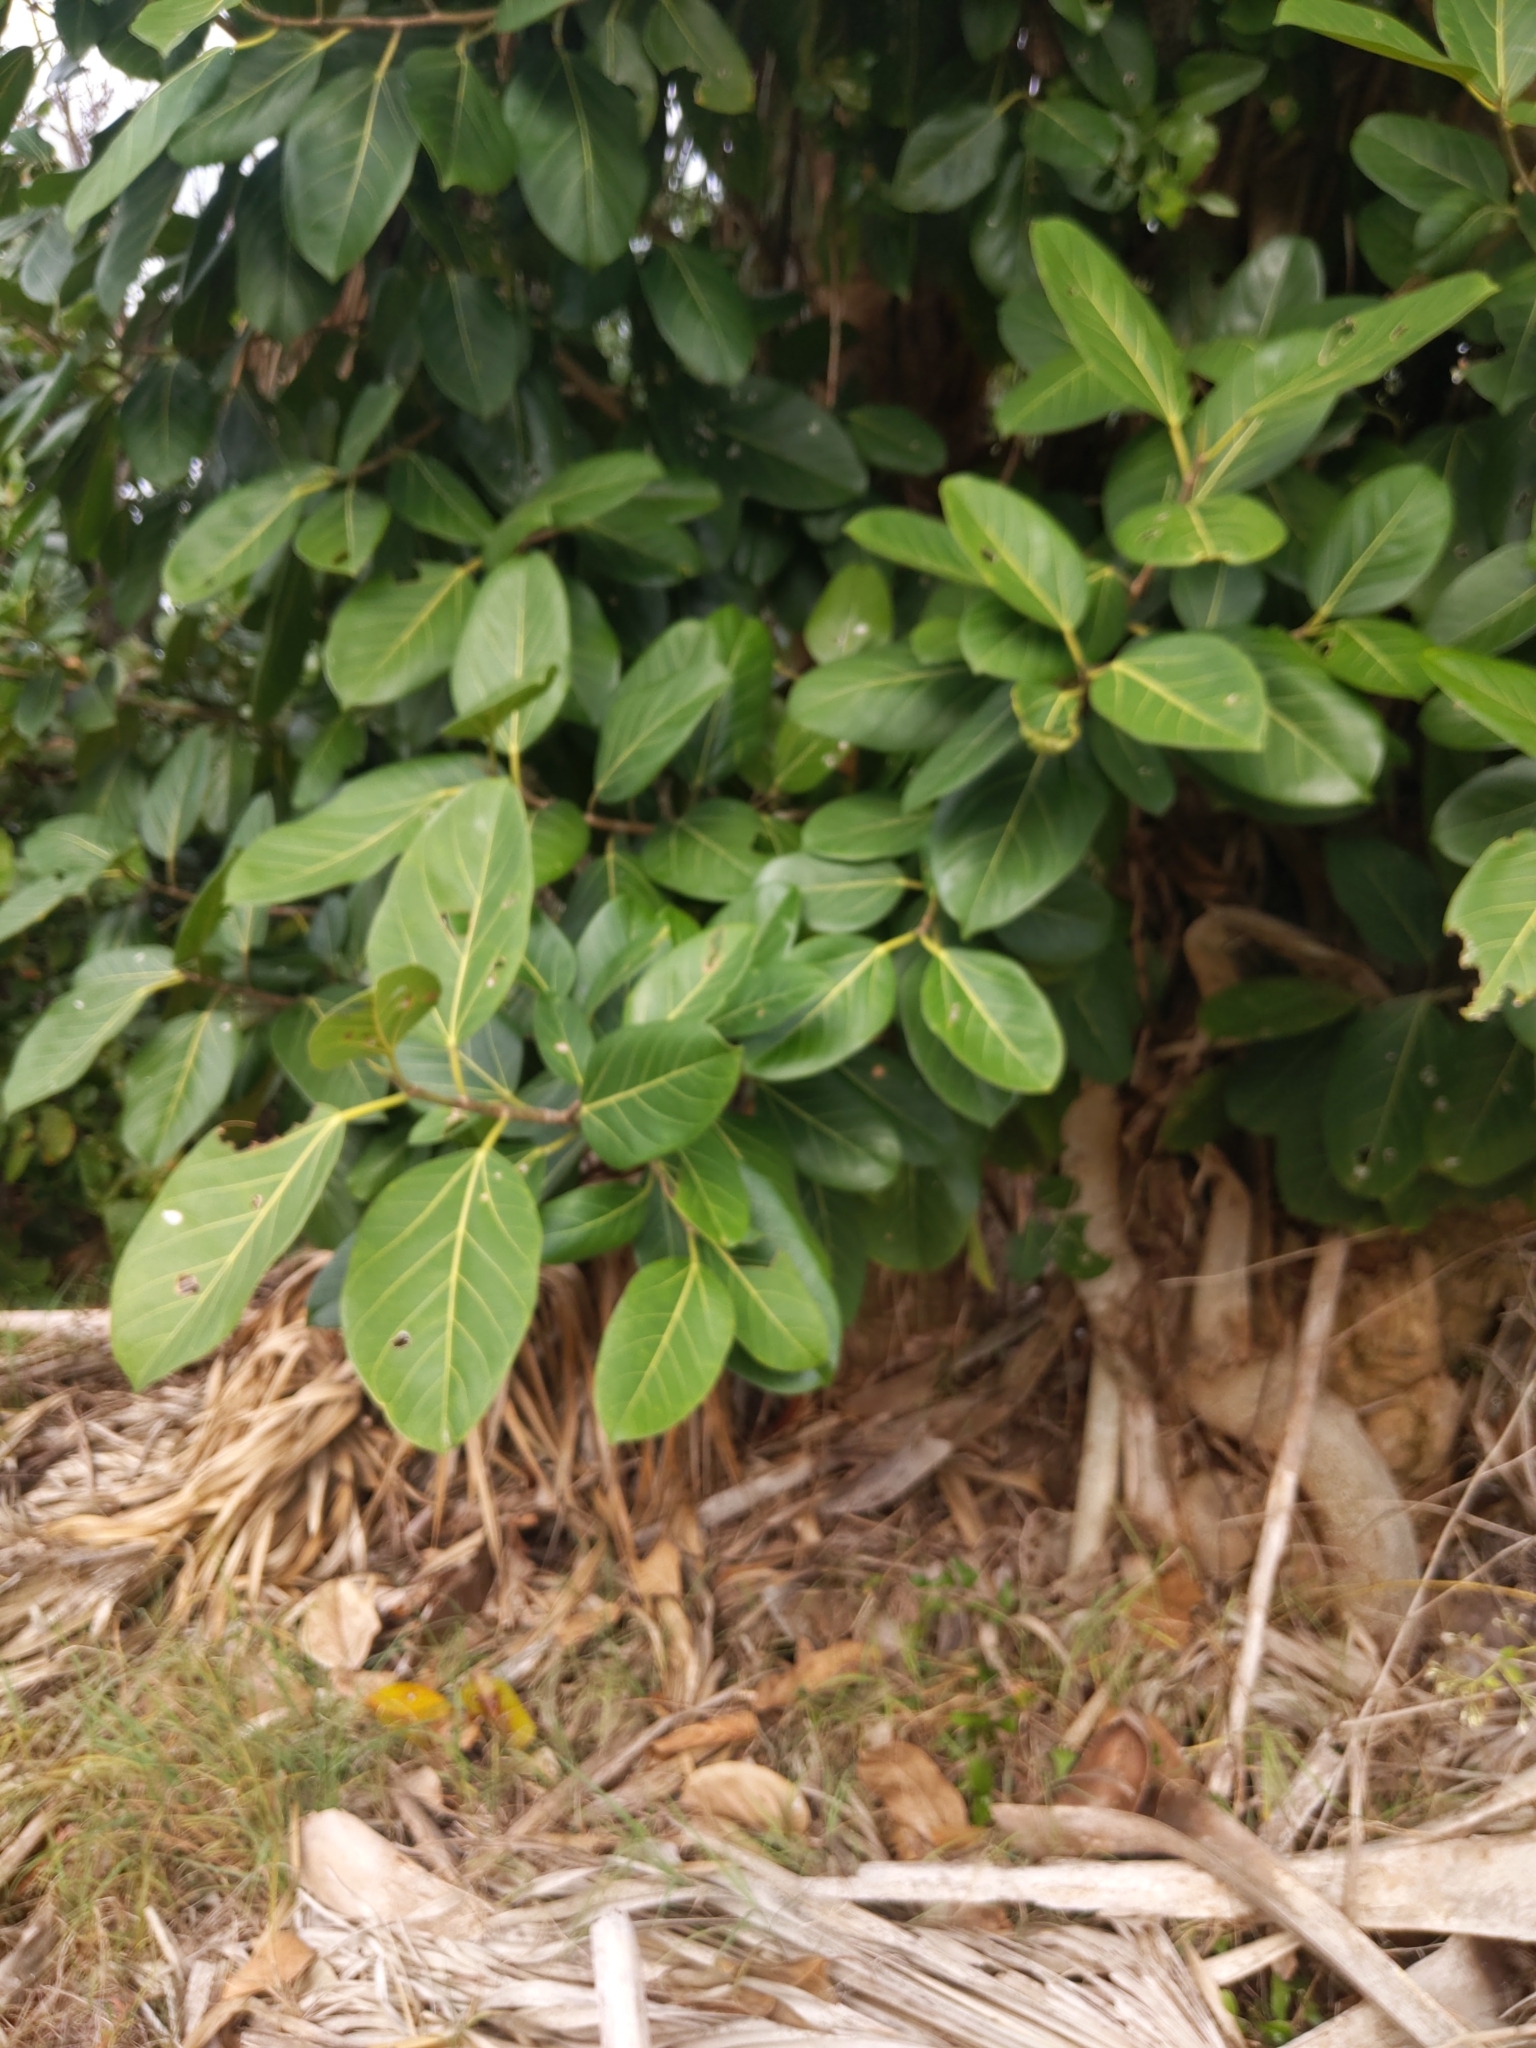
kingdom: Plantae
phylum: Tracheophyta
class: Magnoliopsida
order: Rosales
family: Moraceae
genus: Ficus
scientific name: Ficus benghalensis
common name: Indian banyan
